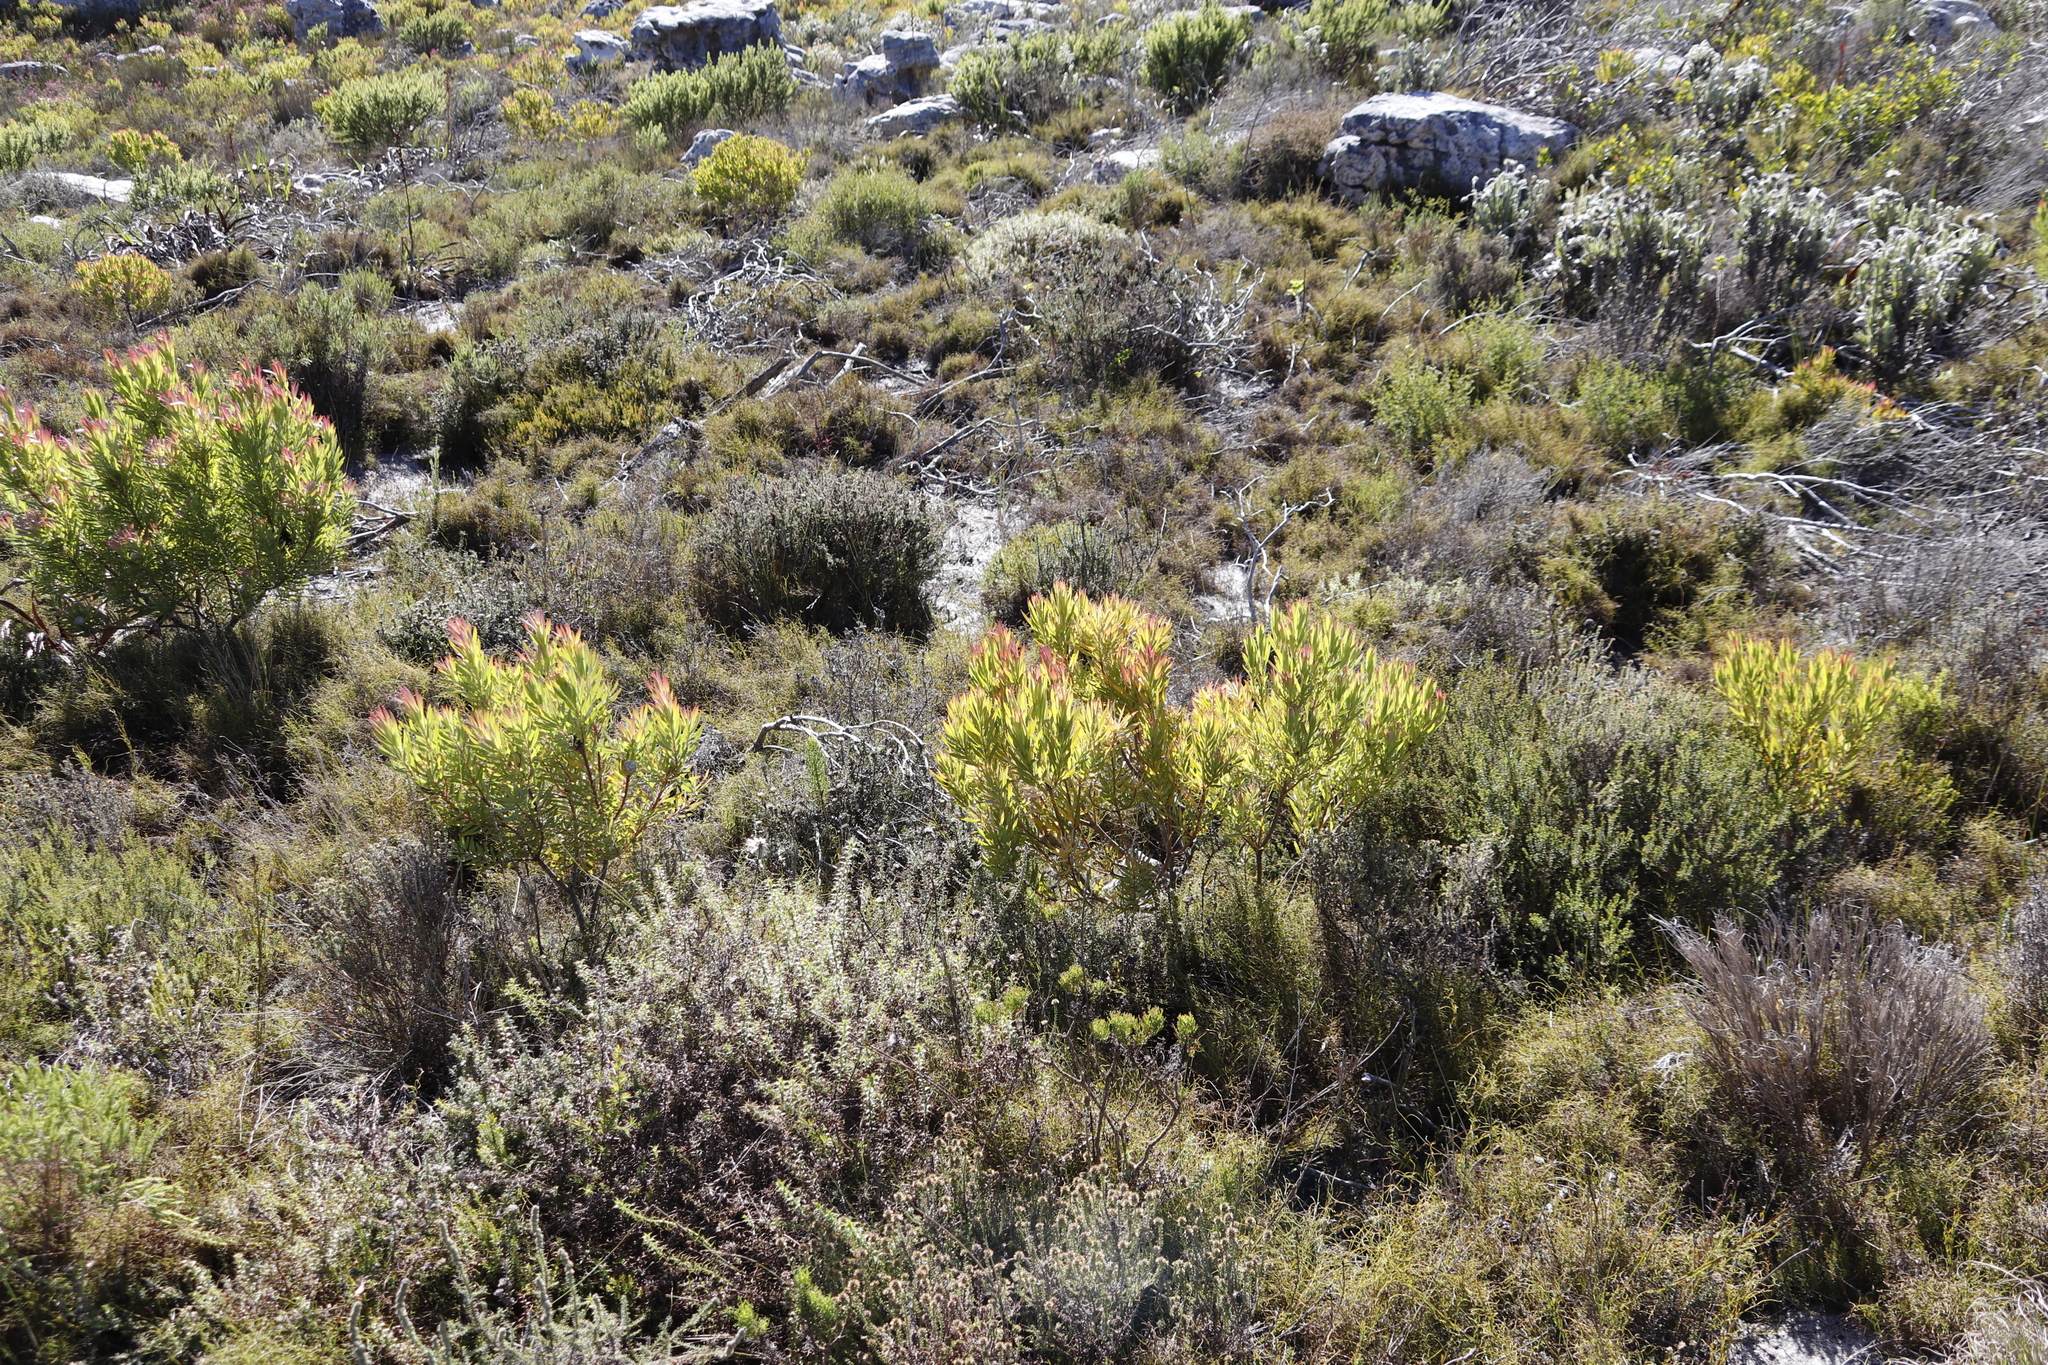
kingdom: Plantae
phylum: Tracheophyta
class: Magnoliopsida
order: Proteales
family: Proteaceae
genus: Leucadendron
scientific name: Leucadendron xanthoconus
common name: Sickle-leaf conebush
